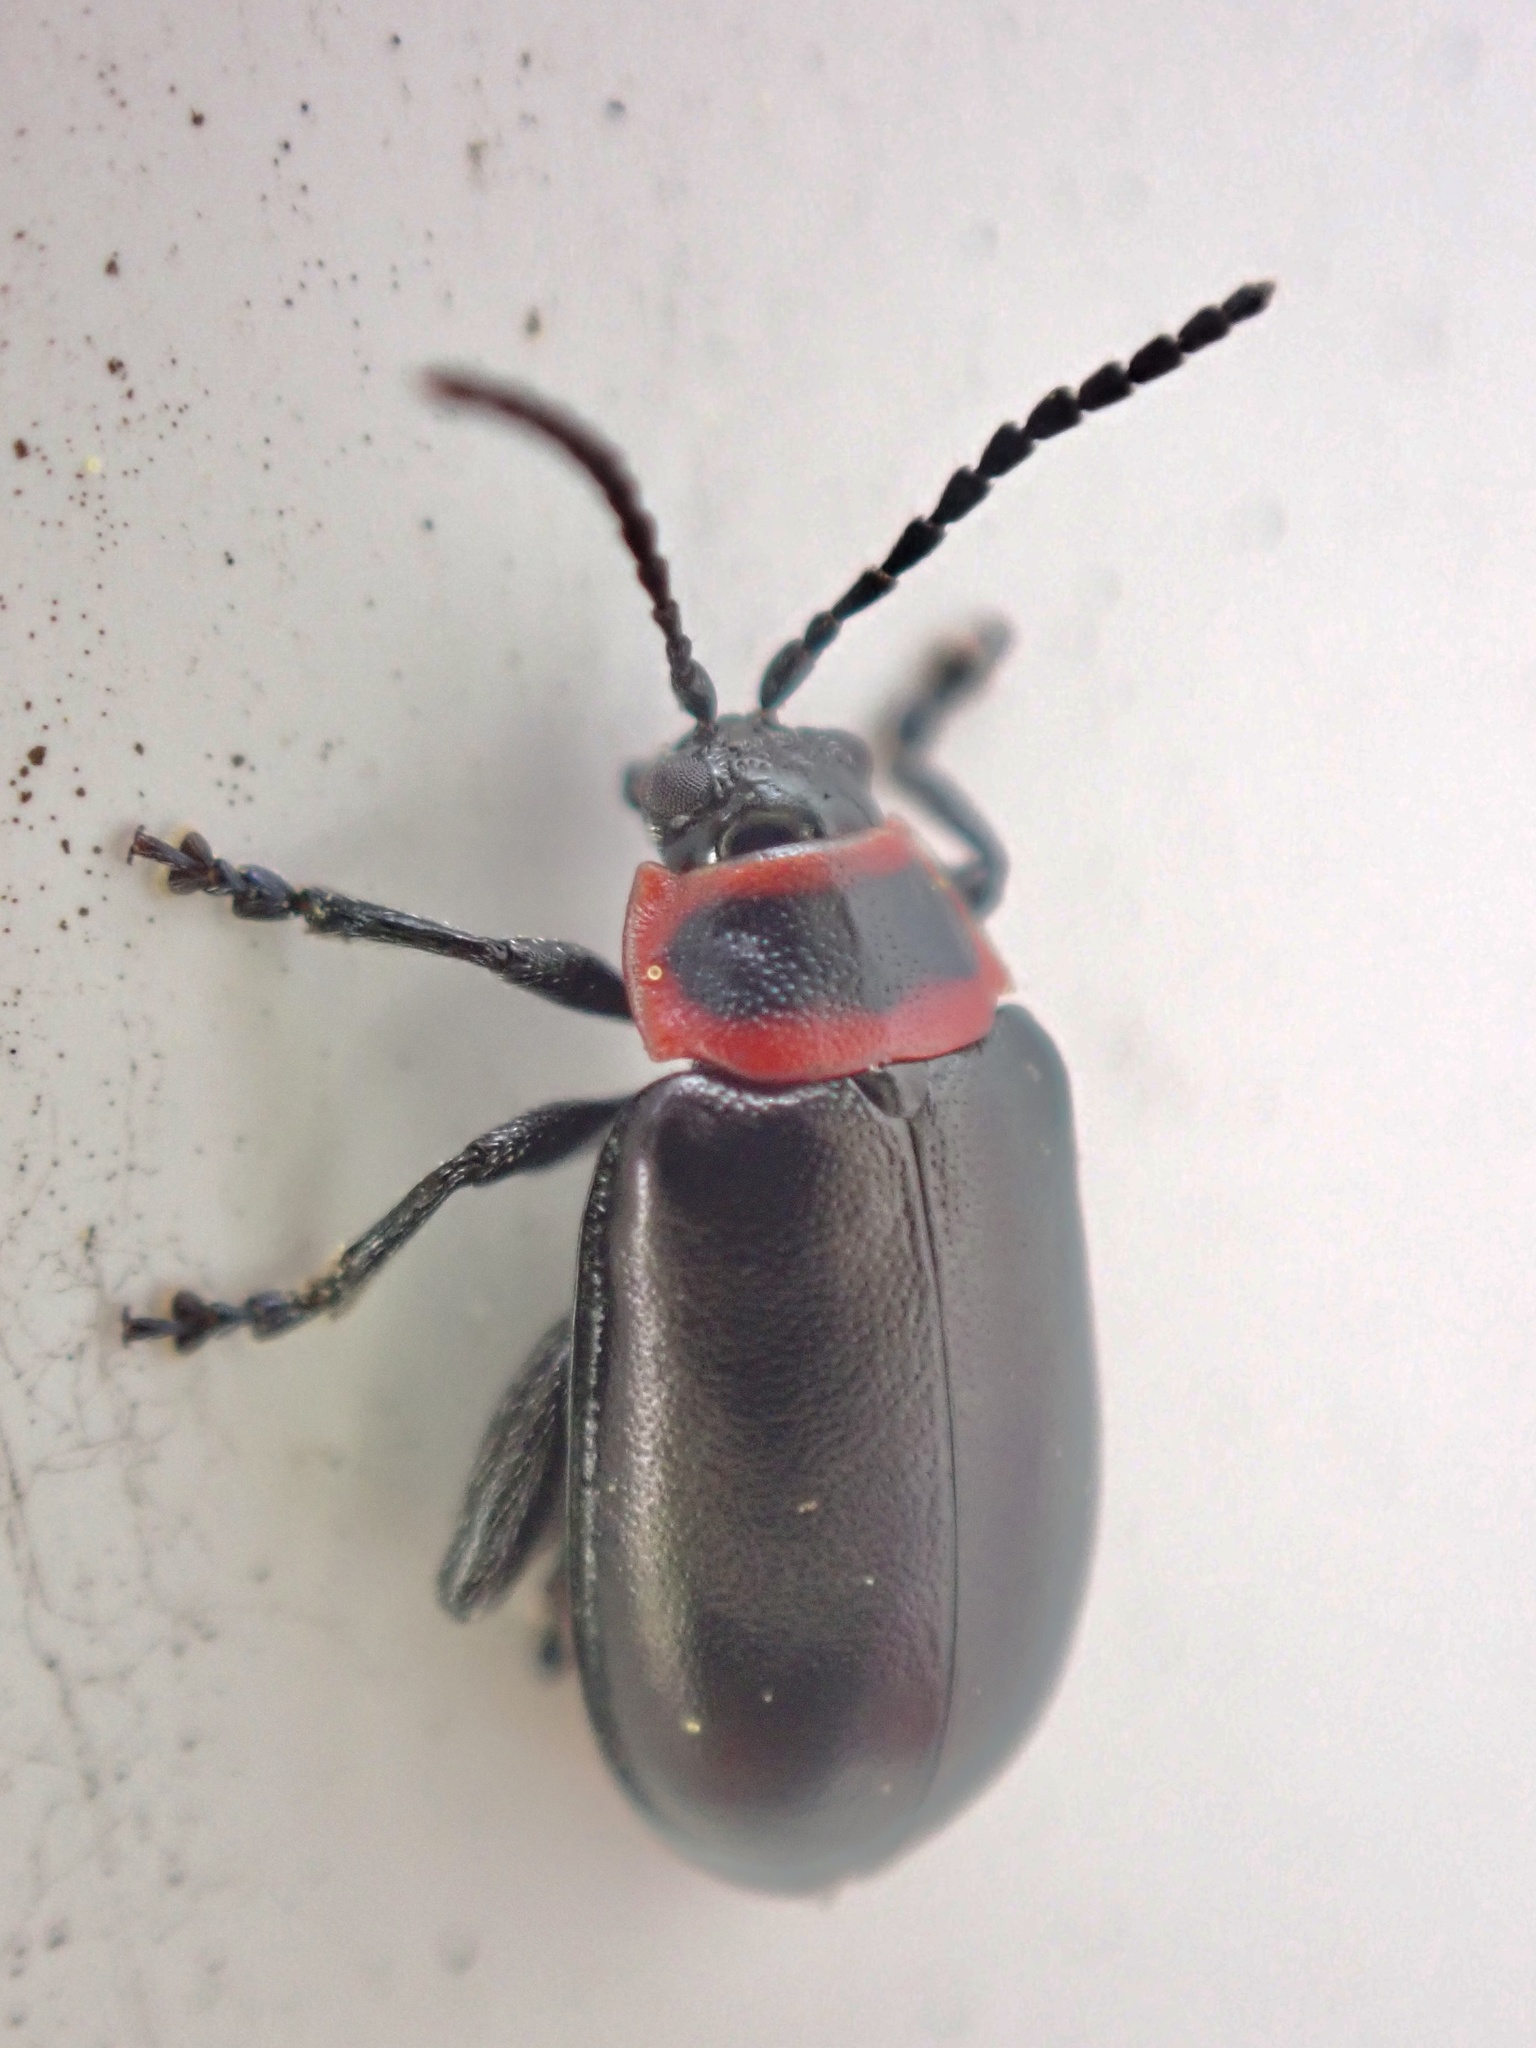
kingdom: Animalia
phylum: Arthropoda
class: Insecta
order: Coleoptera
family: Chrysomelidae
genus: Kuschelina
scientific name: Kuschelina vians
